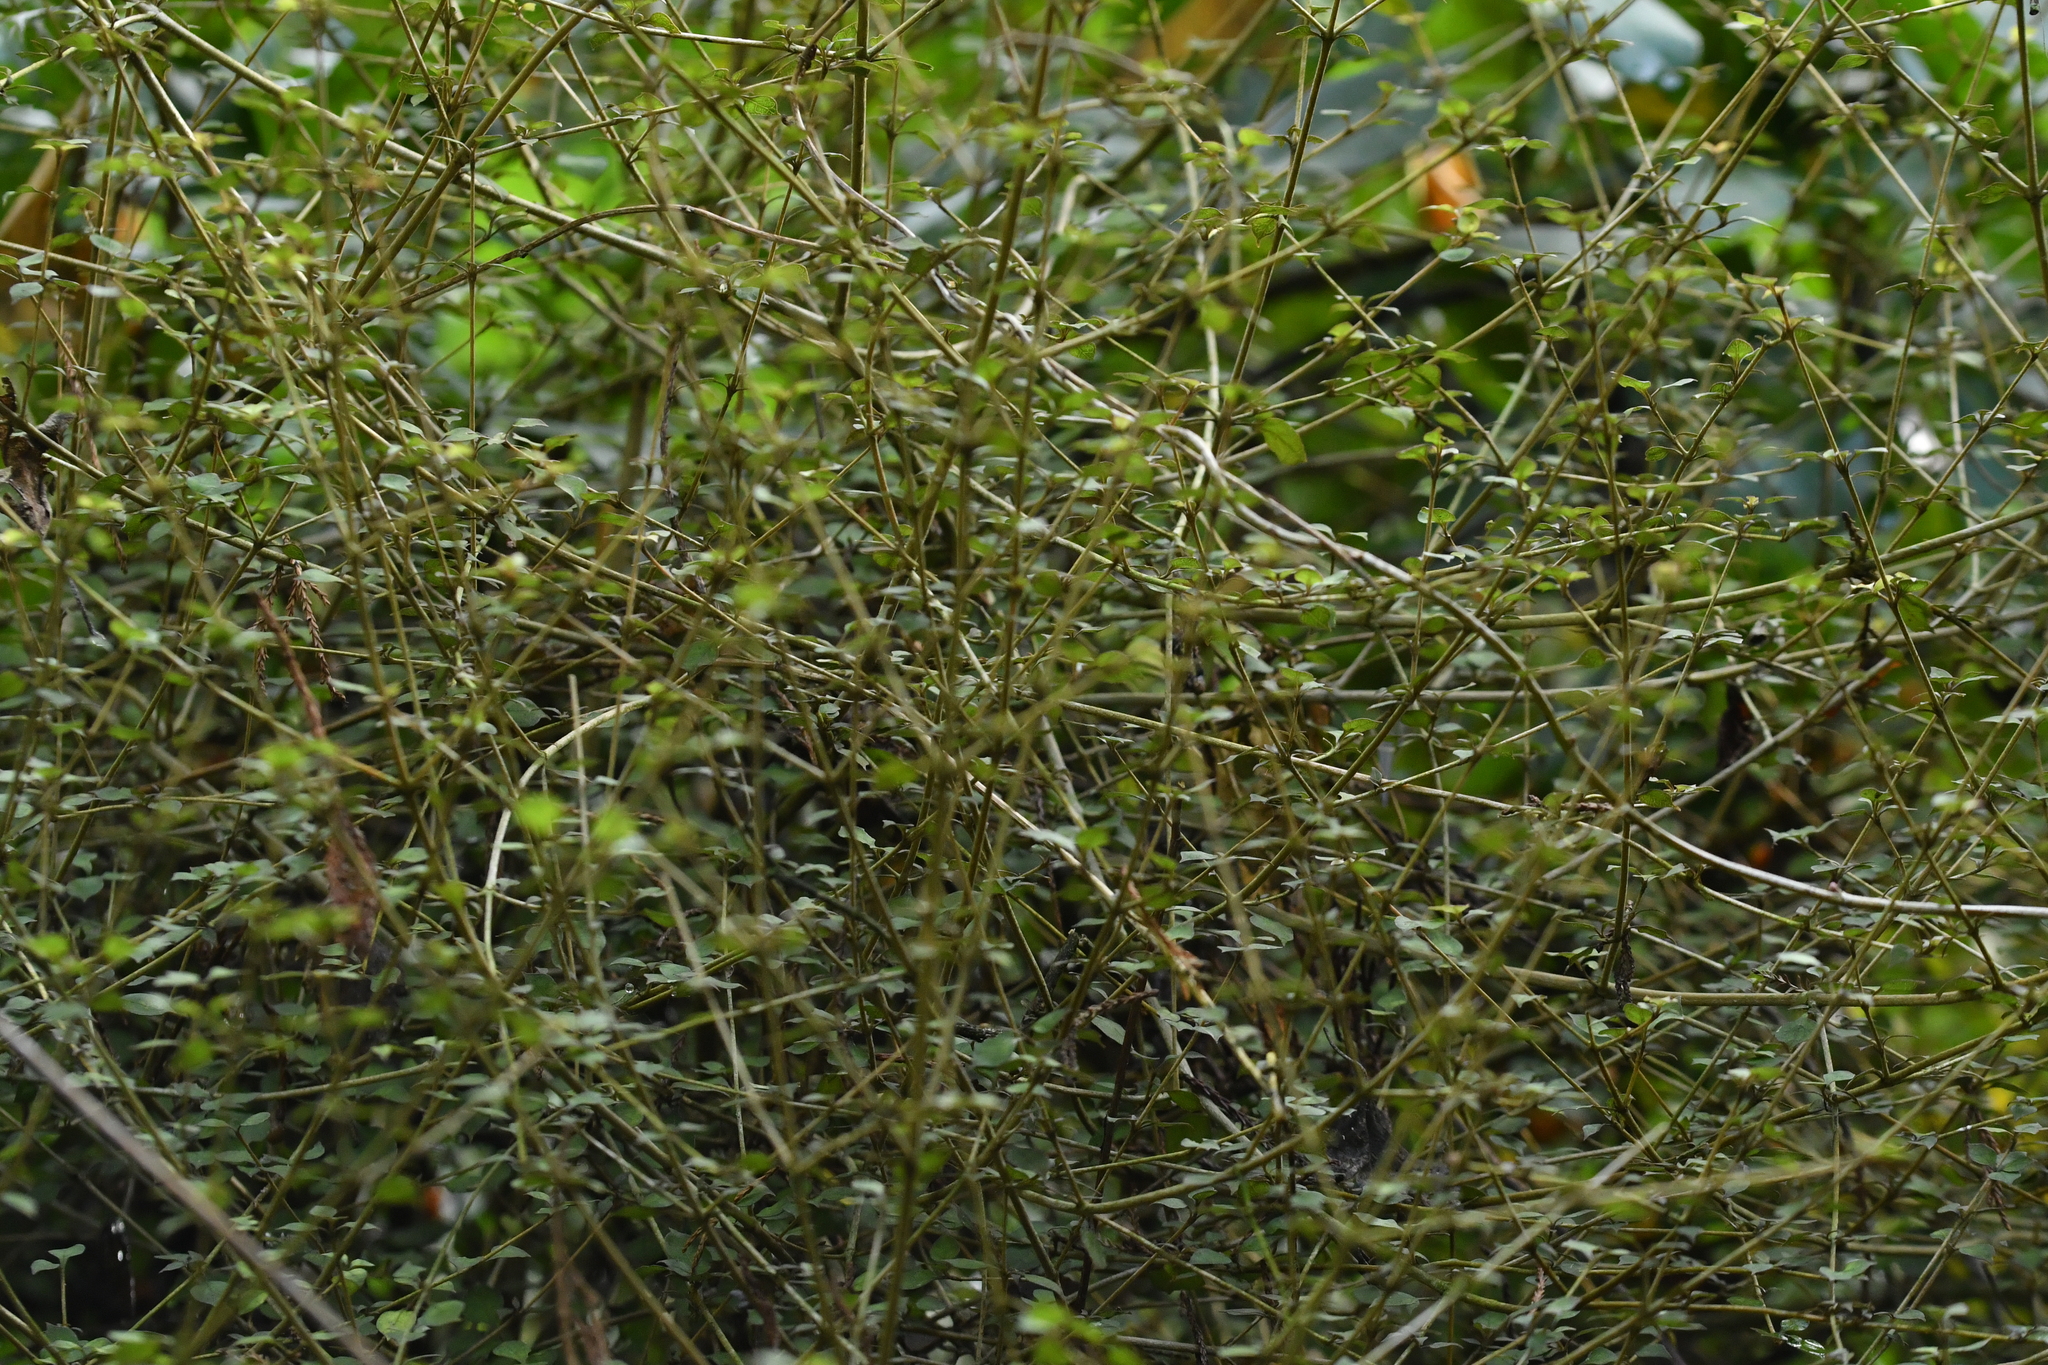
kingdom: Plantae
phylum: Tracheophyta
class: Magnoliopsida
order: Gentianales
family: Rubiaceae
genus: Coprosma
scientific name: Coprosma areolata
